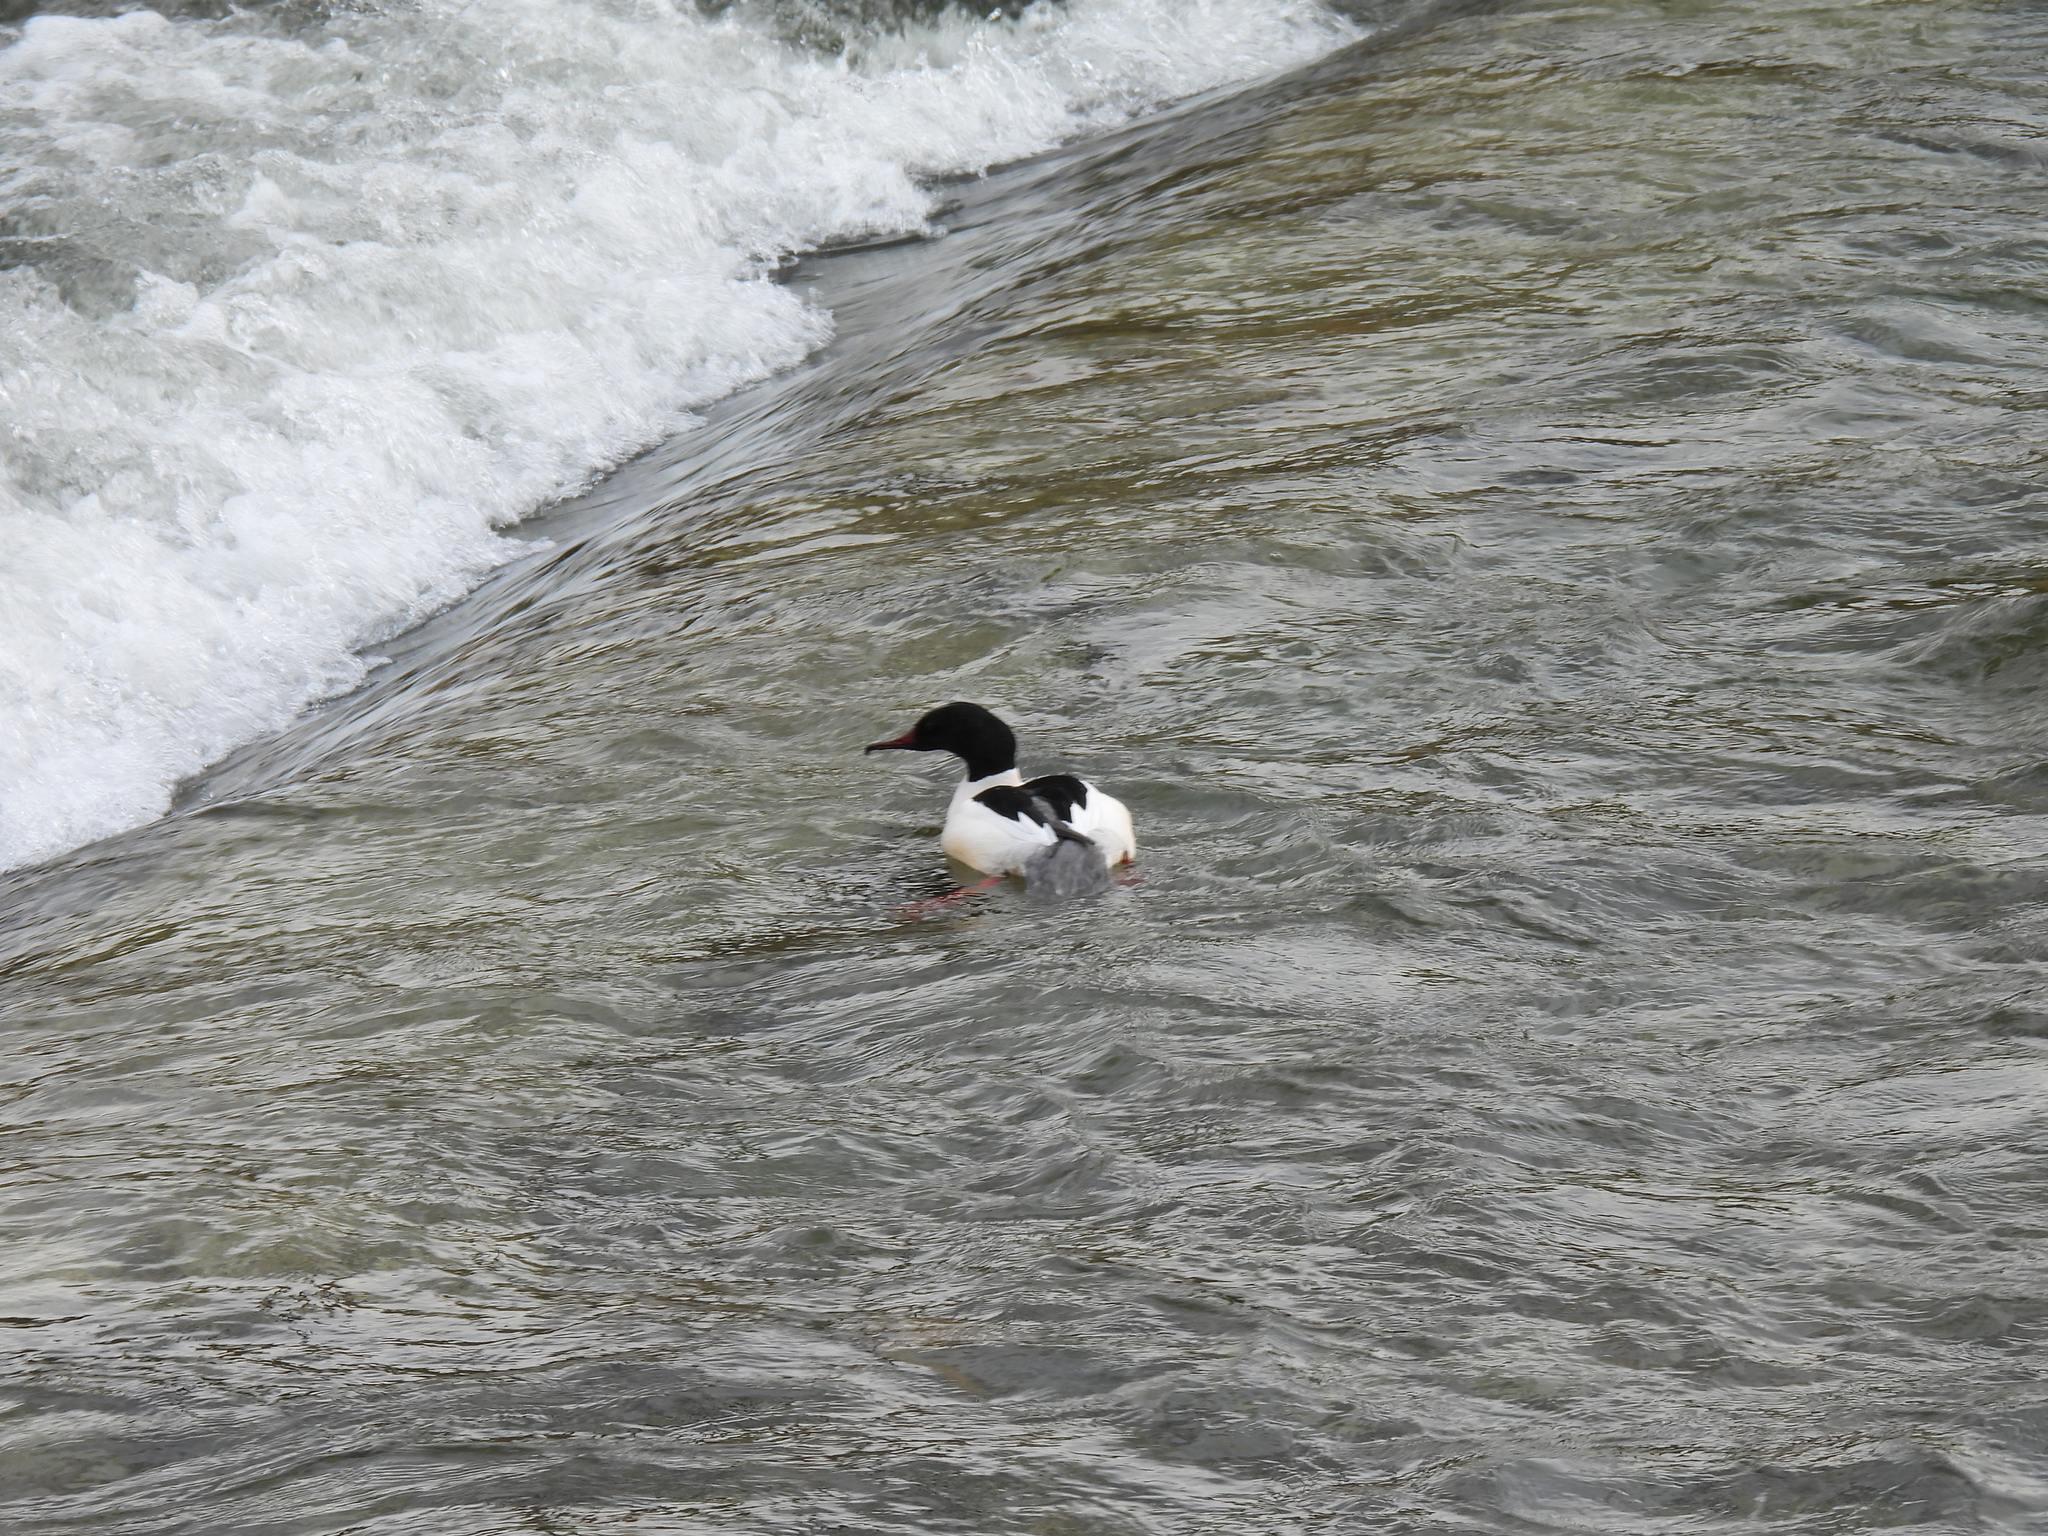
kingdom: Animalia
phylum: Chordata
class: Aves
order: Anseriformes
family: Anatidae
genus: Mergus
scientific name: Mergus merganser
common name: Common merganser
